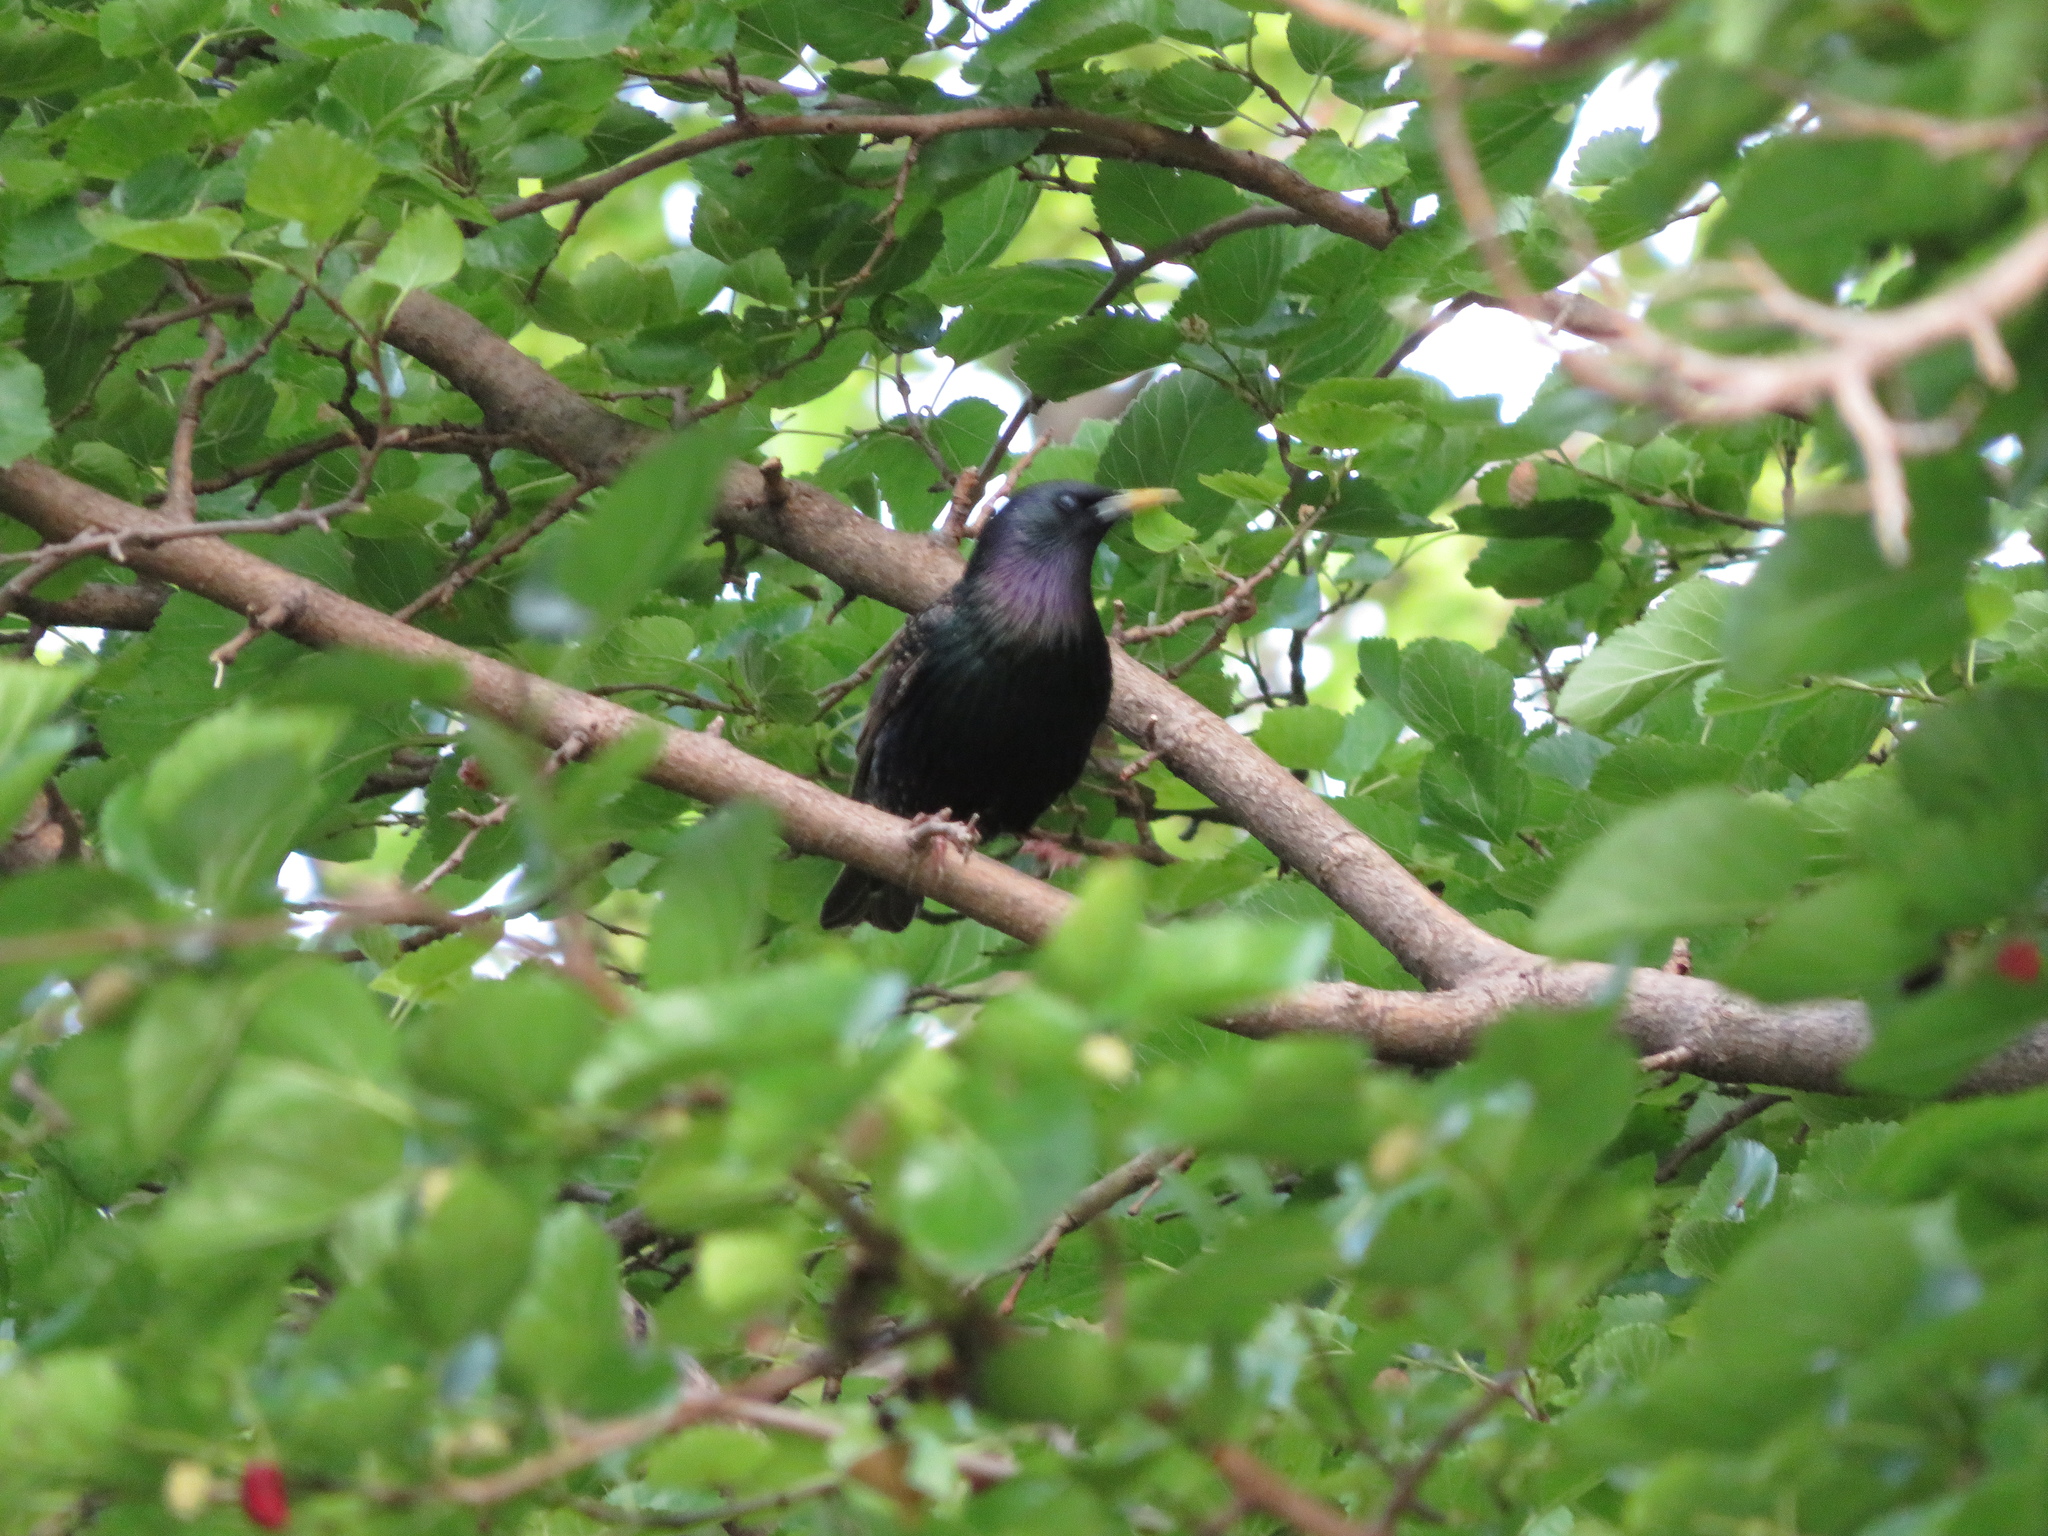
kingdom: Animalia
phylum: Chordata
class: Aves
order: Passeriformes
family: Sturnidae
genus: Sturnus
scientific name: Sturnus vulgaris
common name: Common starling
